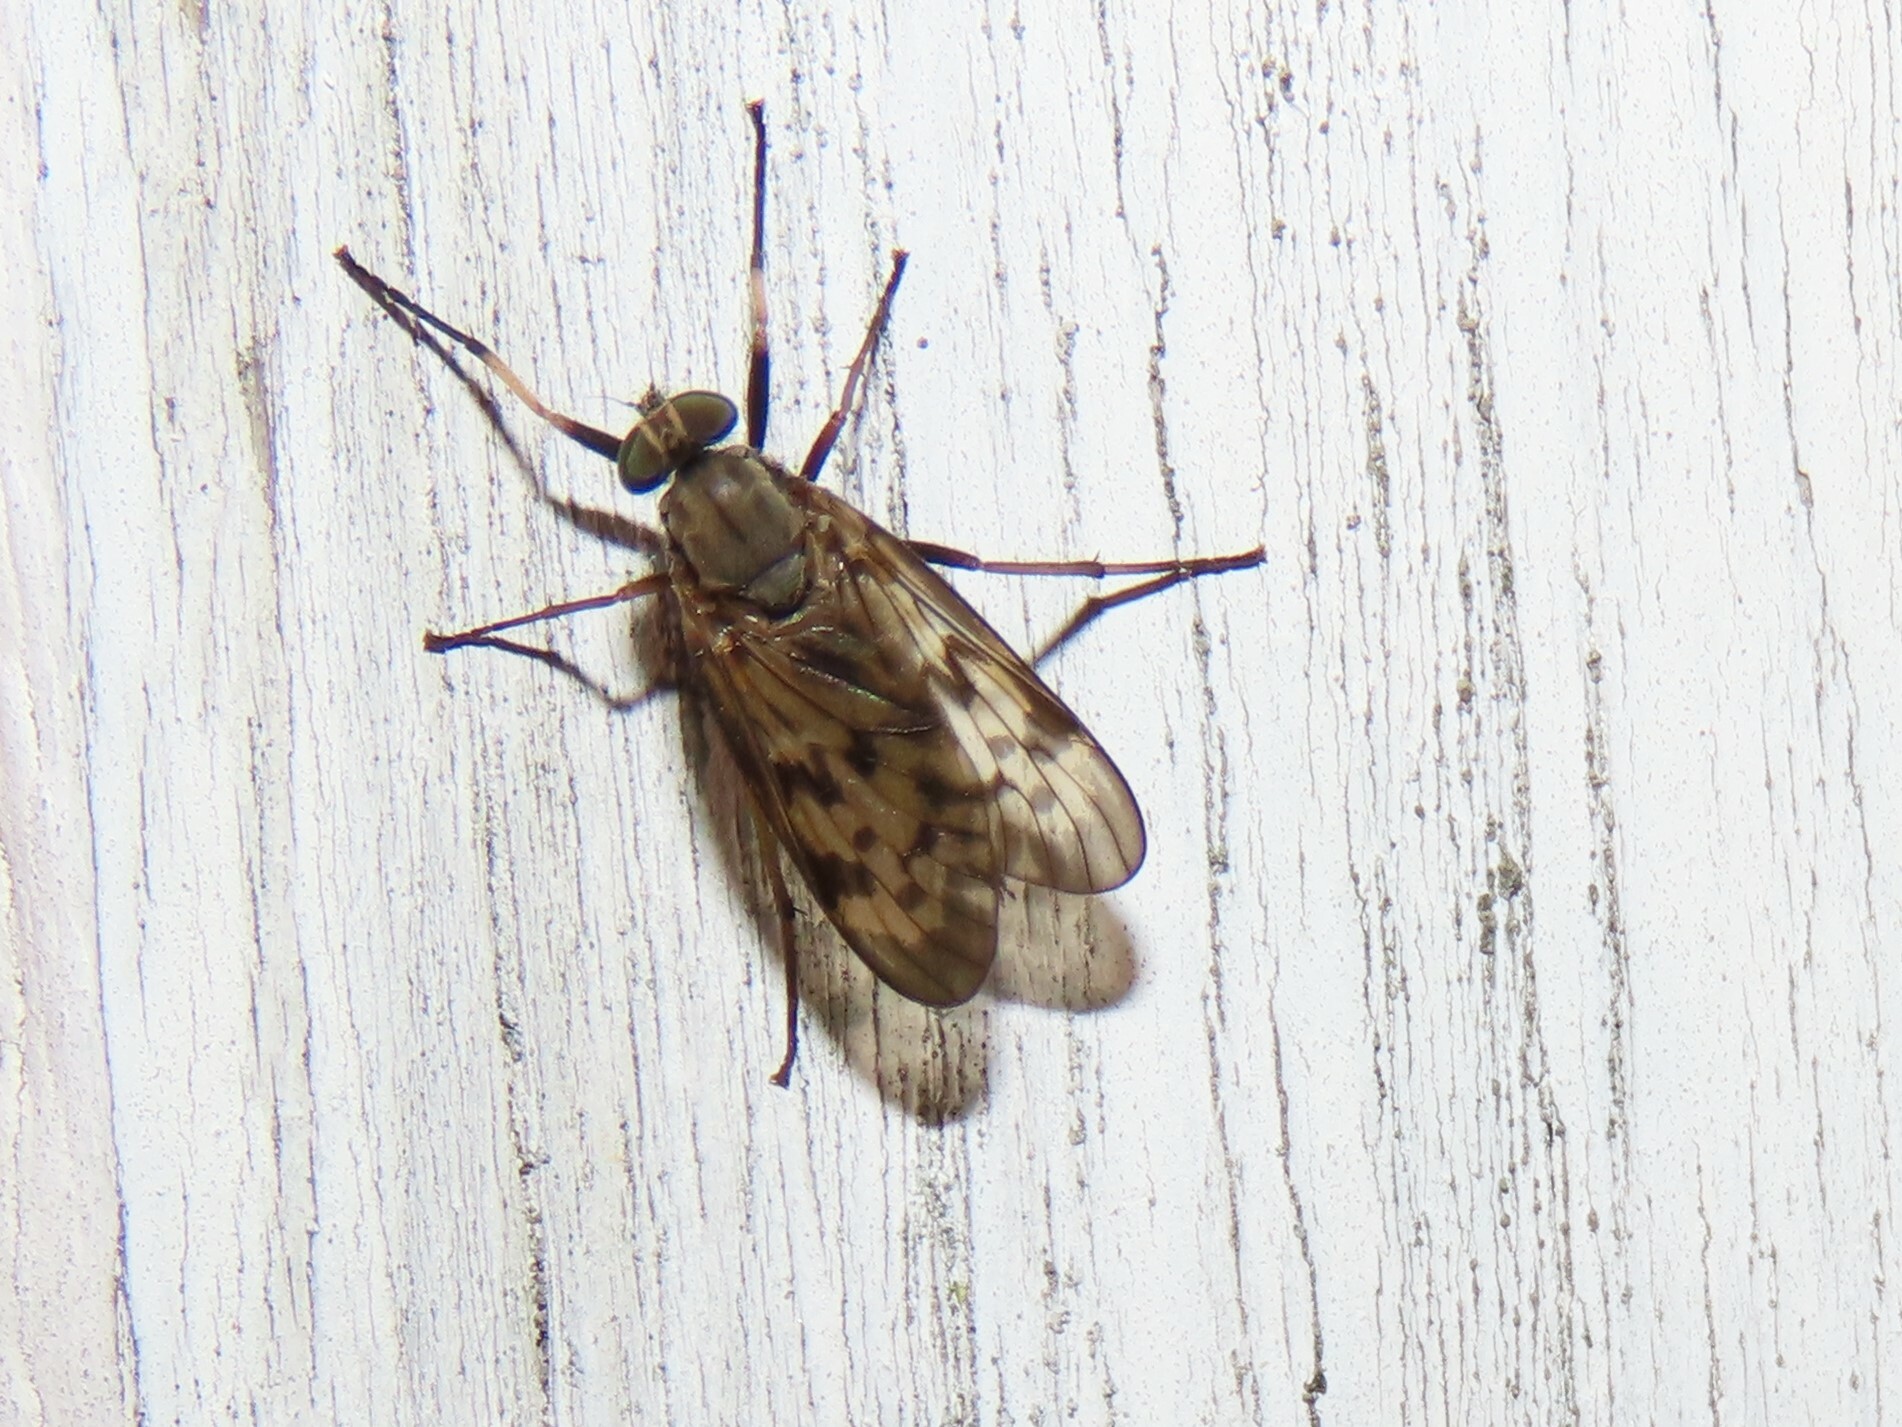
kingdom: Animalia
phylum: Arthropoda
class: Insecta
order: Diptera
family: Rhagionidae
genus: Rhagio
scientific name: Rhagio punctipennis
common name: Lesser variegated snipe fly
